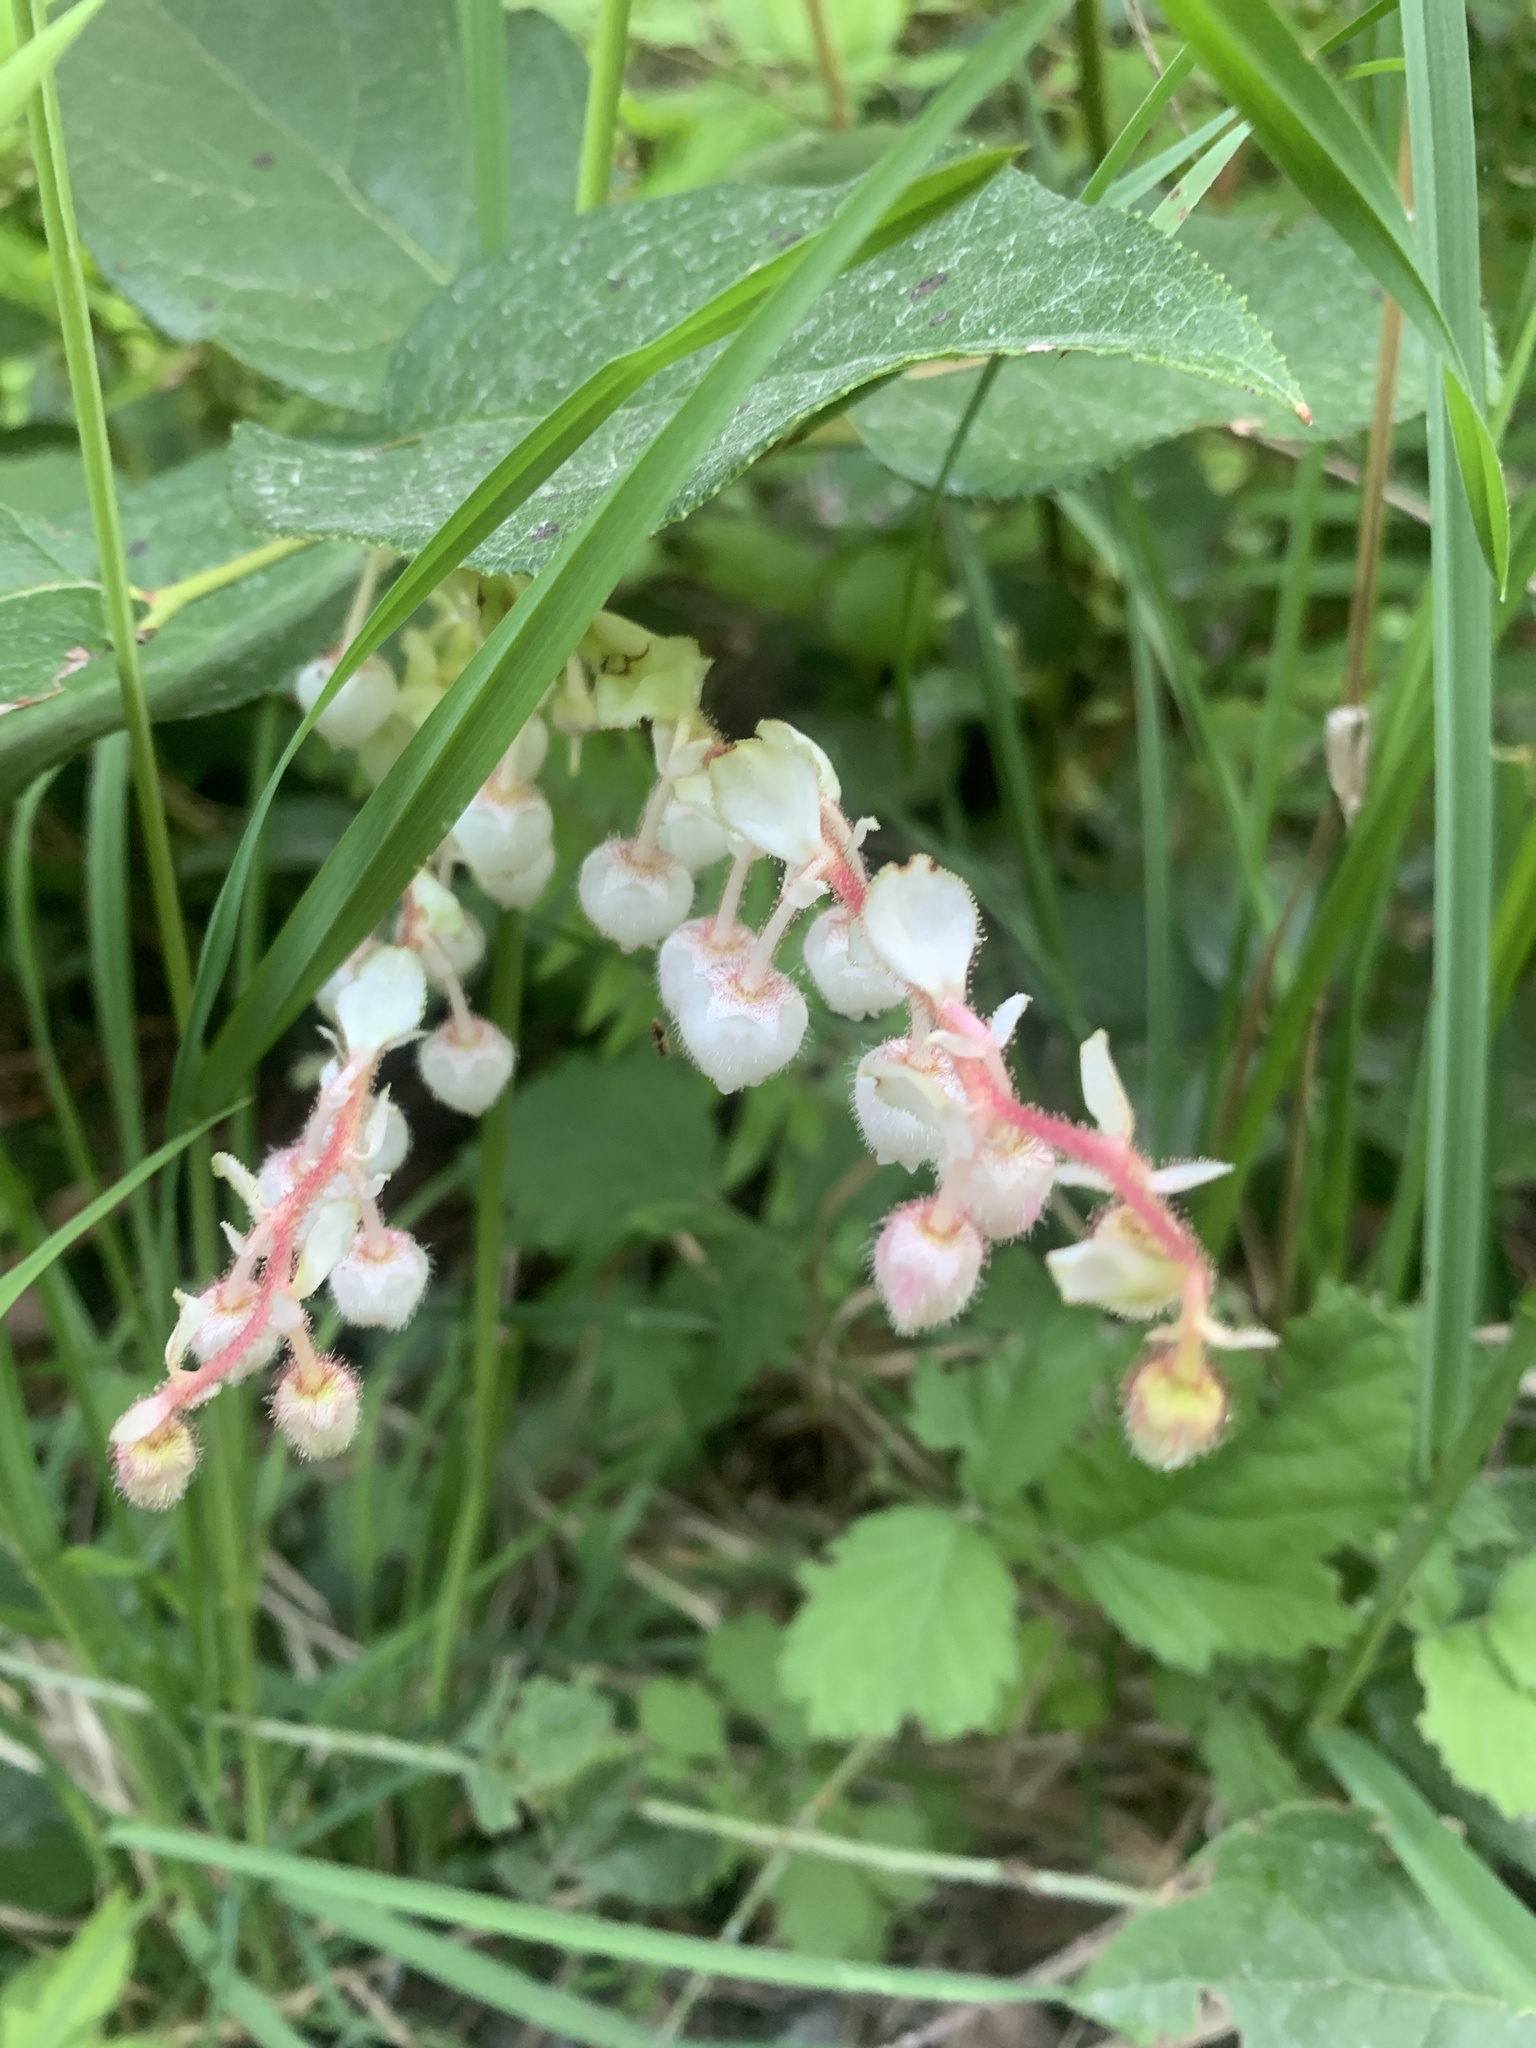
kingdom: Plantae
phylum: Tracheophyta
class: Magnoliopsida
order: Ericales
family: Ericaceae
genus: Gaultheria
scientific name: Gaultheria shallon
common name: Shallon
